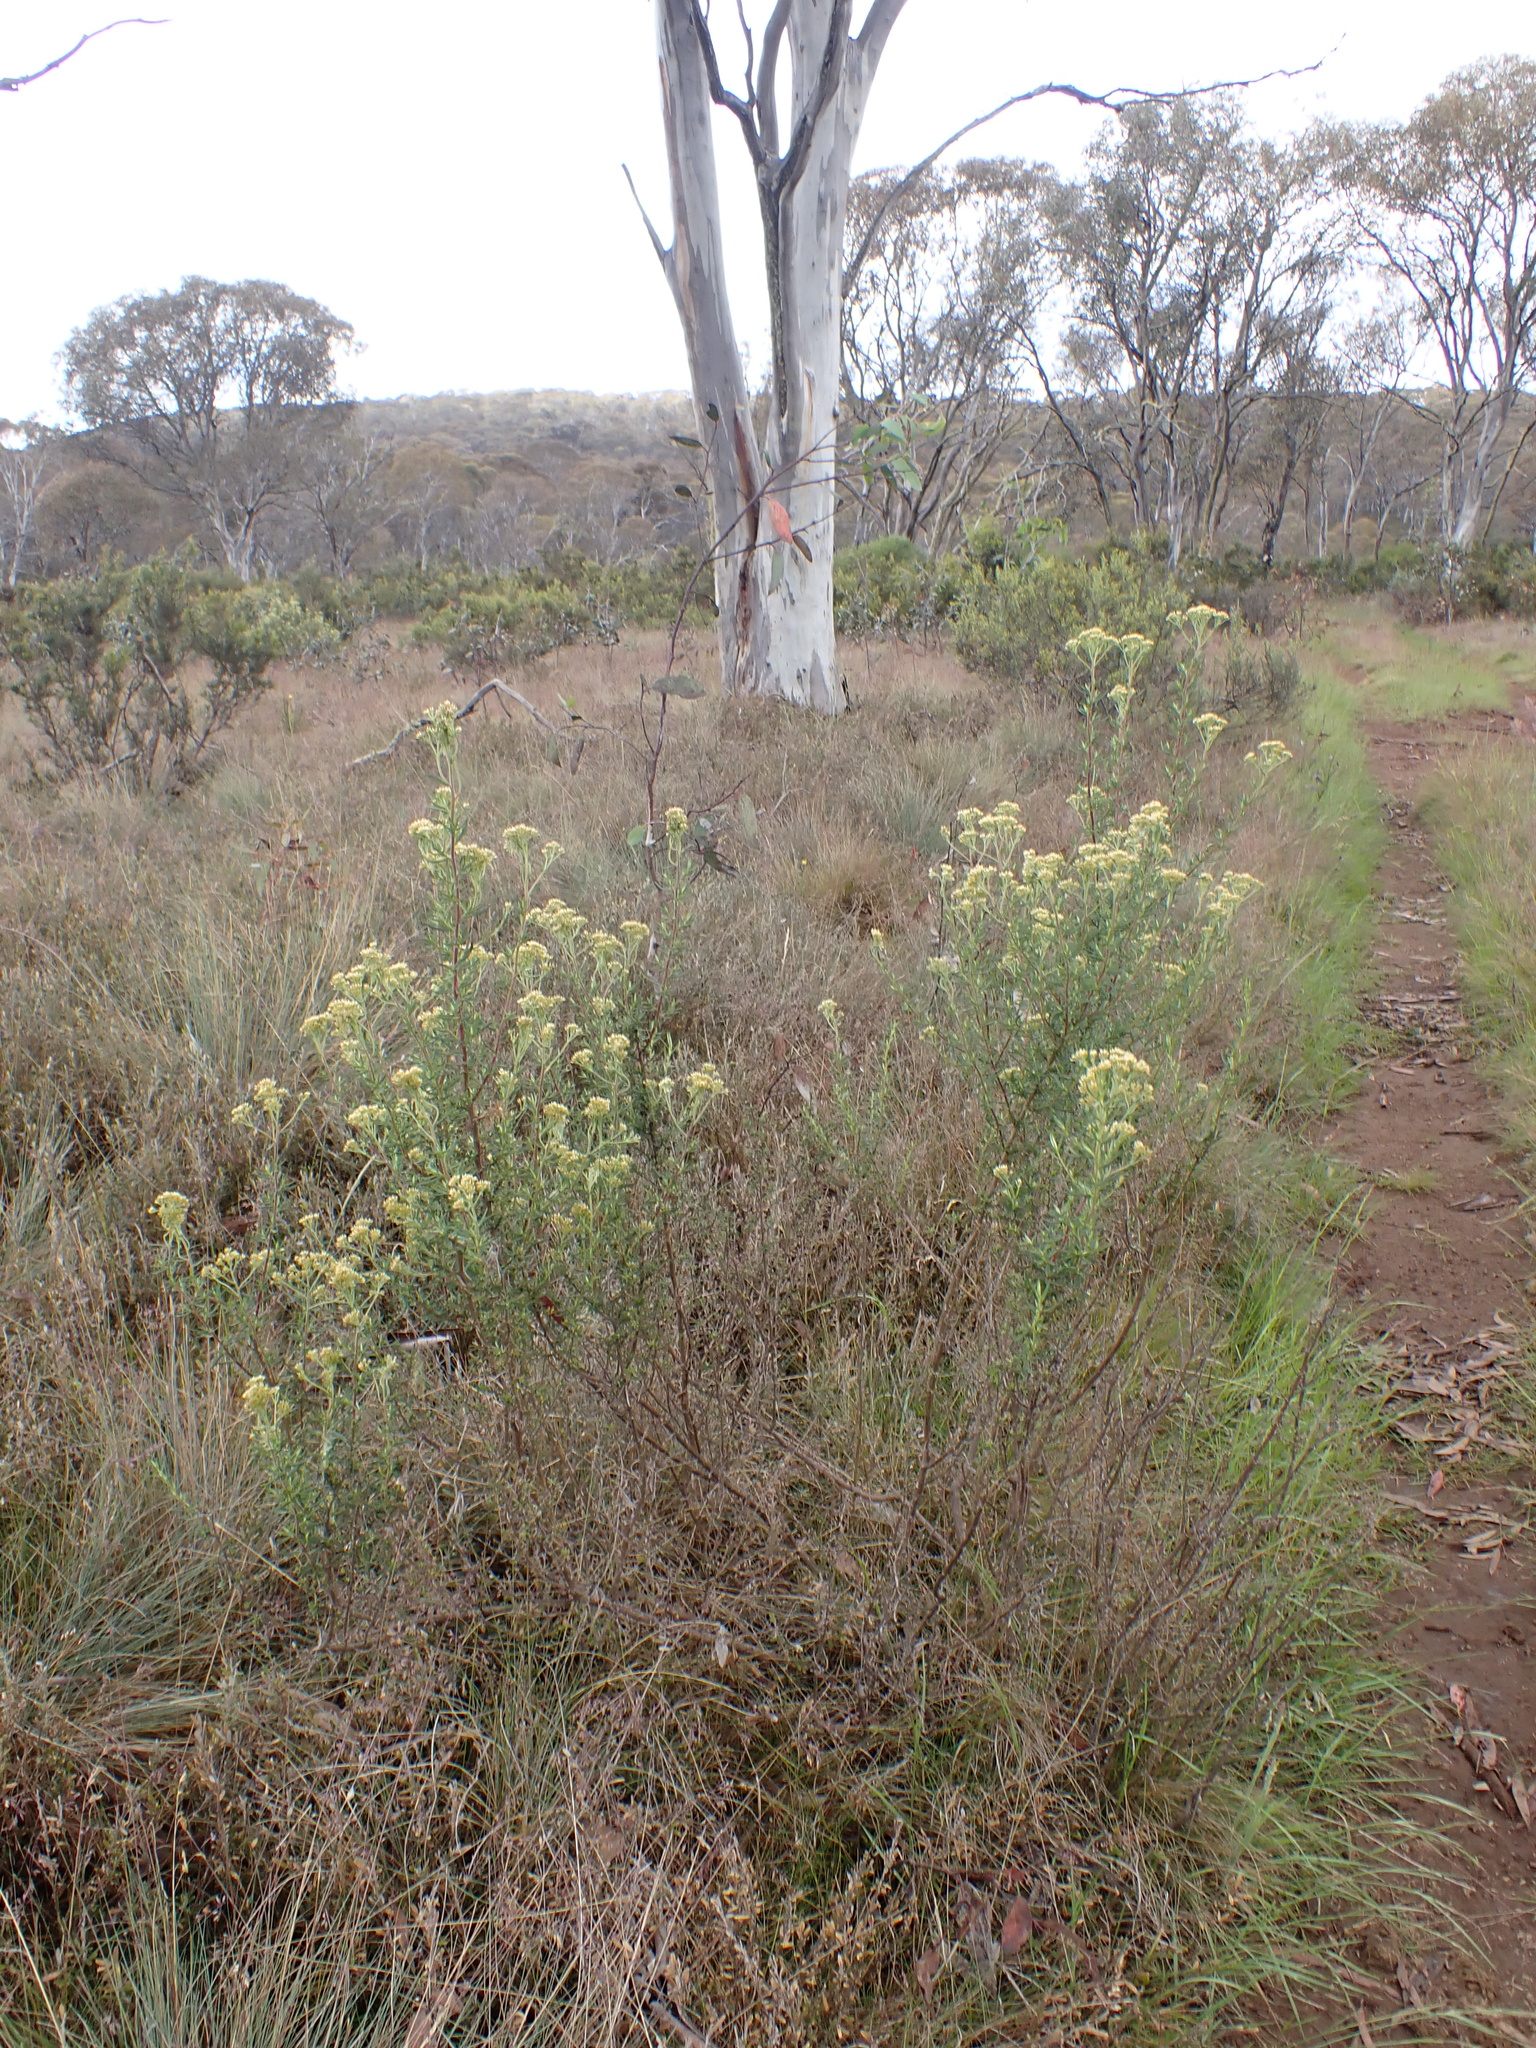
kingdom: Plantae
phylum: Tracheophyta
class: Magnoliopsida
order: Asterales
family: Asteraceae
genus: Cassinia
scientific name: Cassinia monticola
